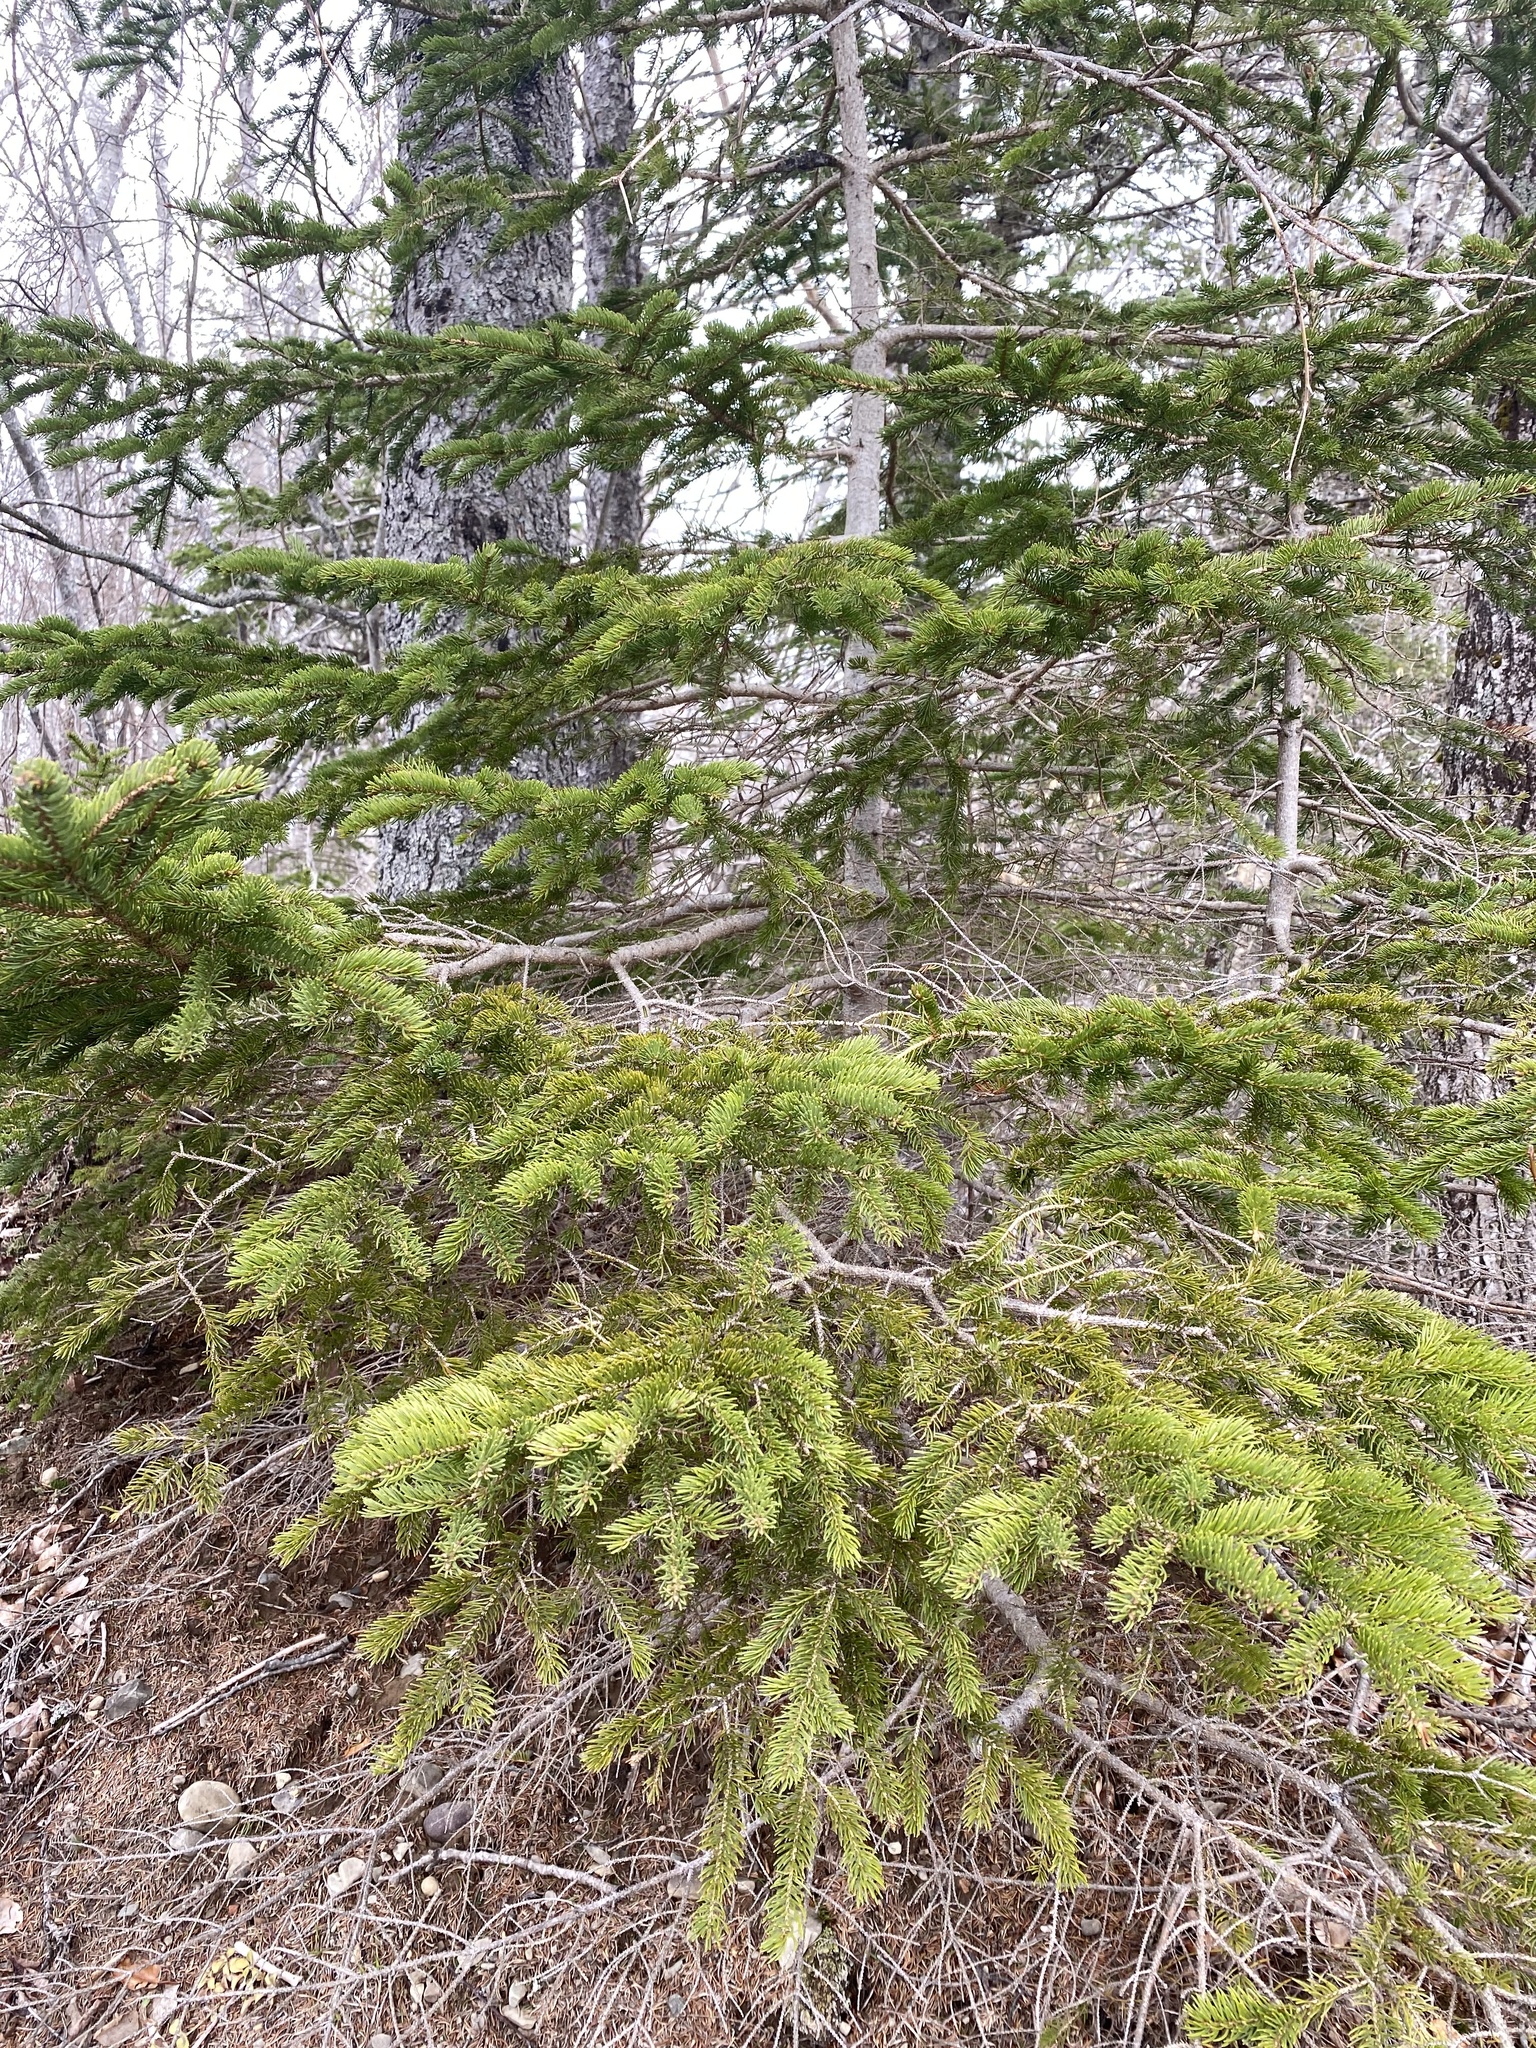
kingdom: Plantae
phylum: Tracheophyta
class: Pinopsida
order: Pinales
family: Pinaceae
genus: Picea
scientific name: Picea glauca
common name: White spruce
